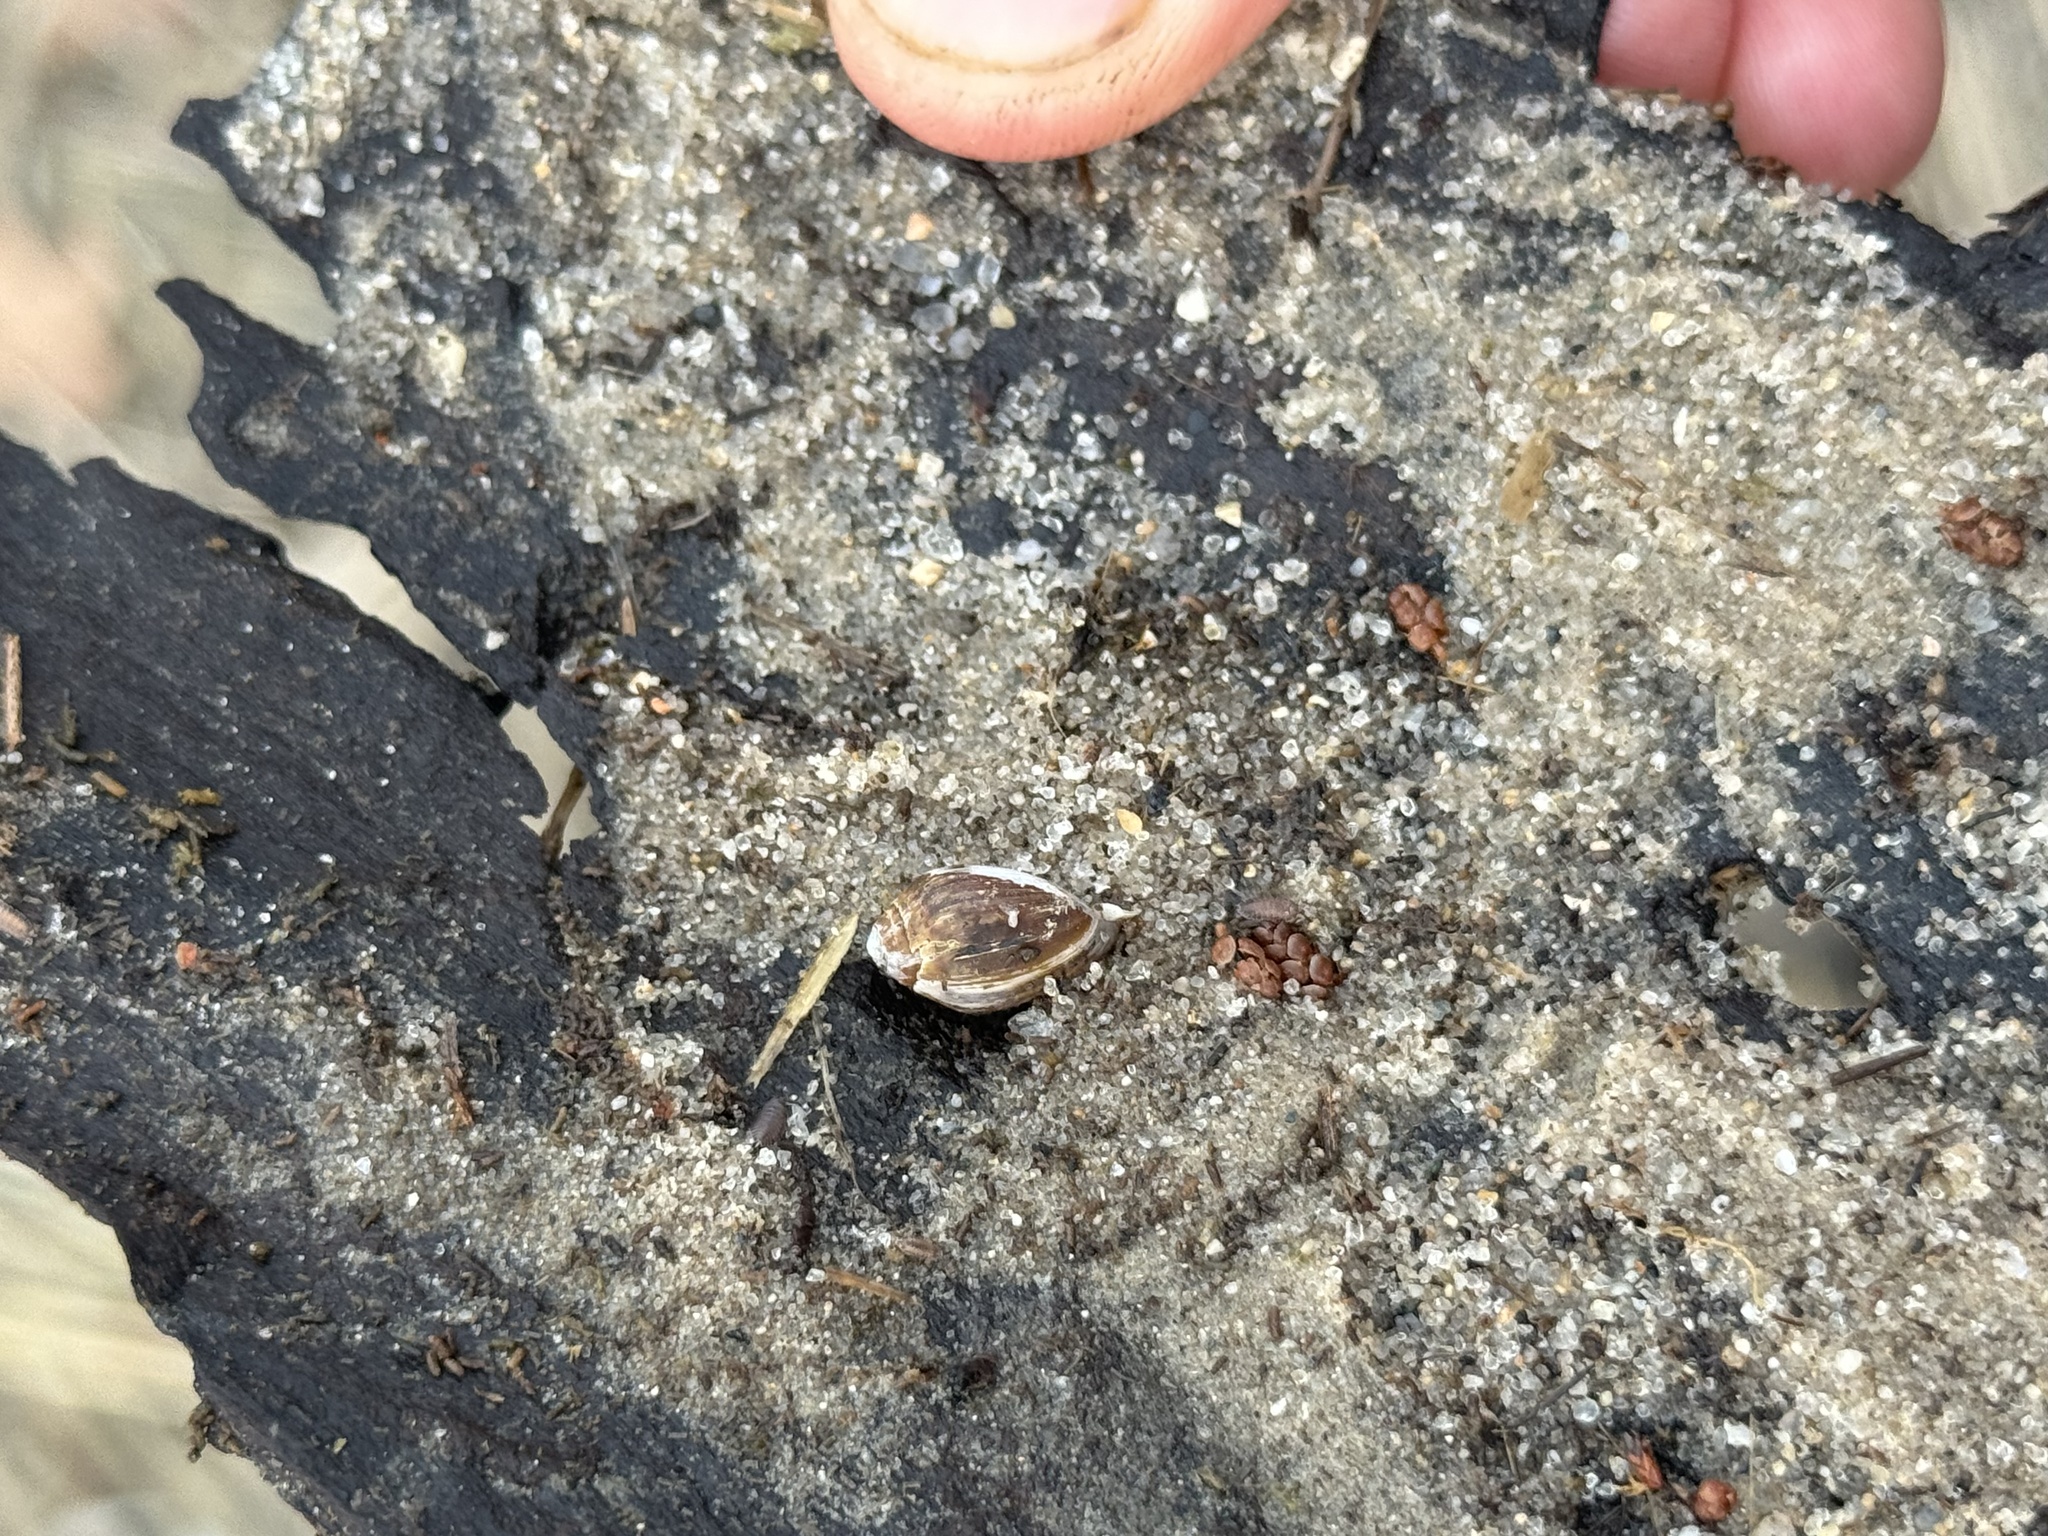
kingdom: Animalia
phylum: Mollusca
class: Gastropoda
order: Ellobiida
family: Ellobiidae
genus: Melampus
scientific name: Melampus bidentatus
